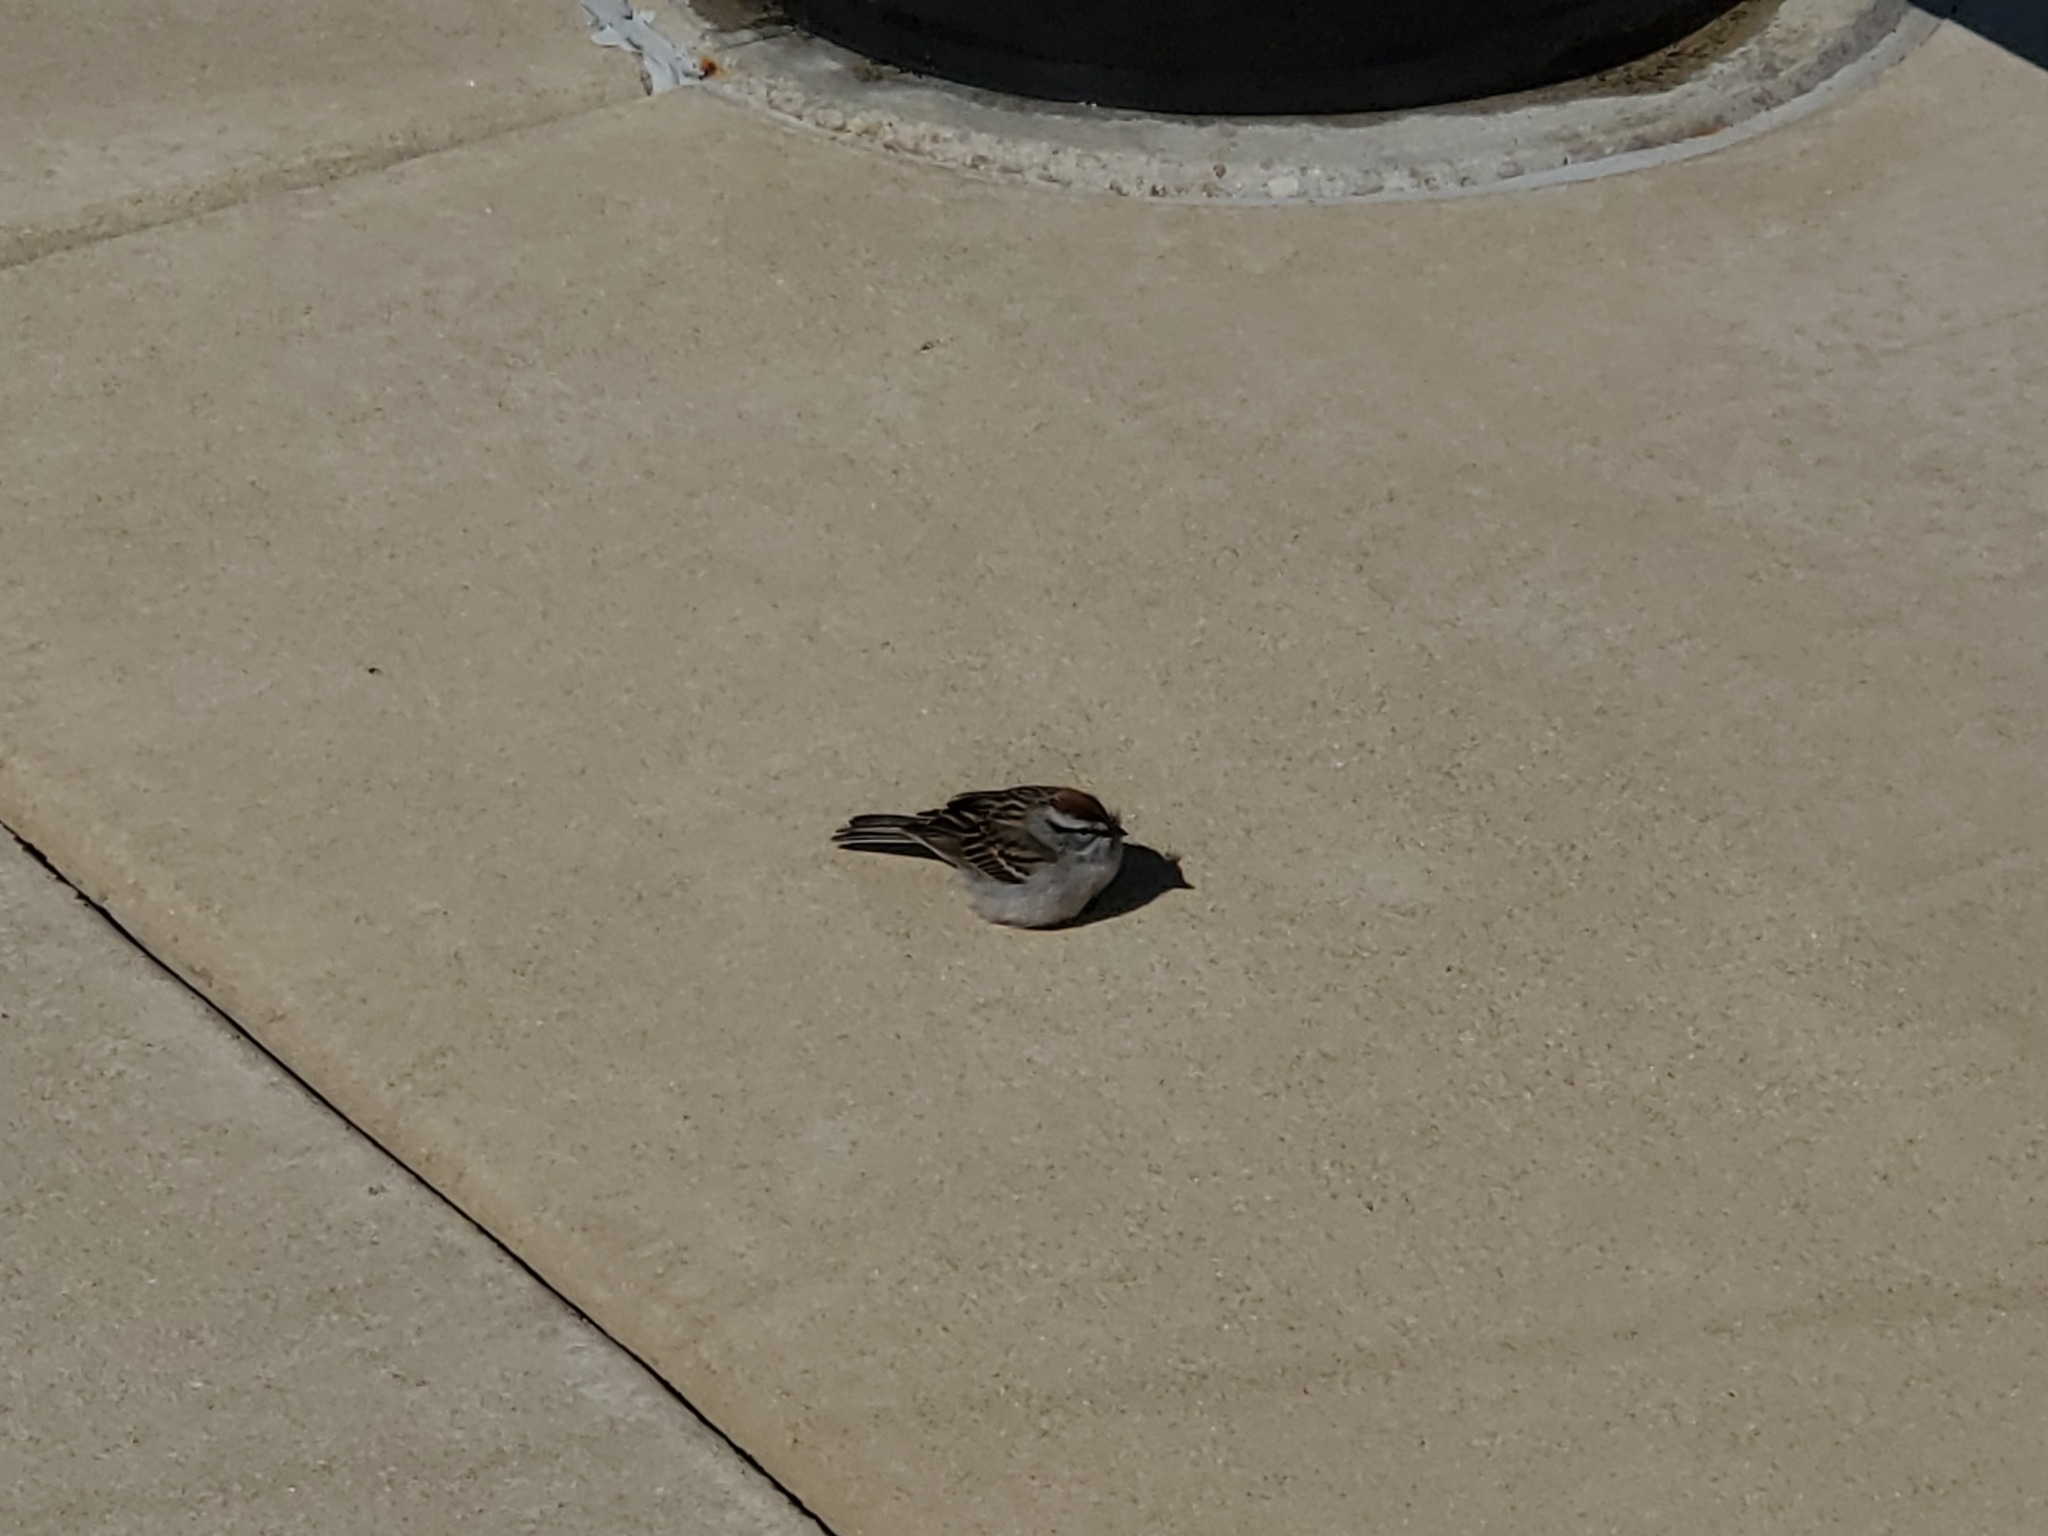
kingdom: Animalia
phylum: Chordata
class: Aves
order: Passeriformes
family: Passerellidae
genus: Spizella
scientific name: Spizella passerina
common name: Chipping sparrow
